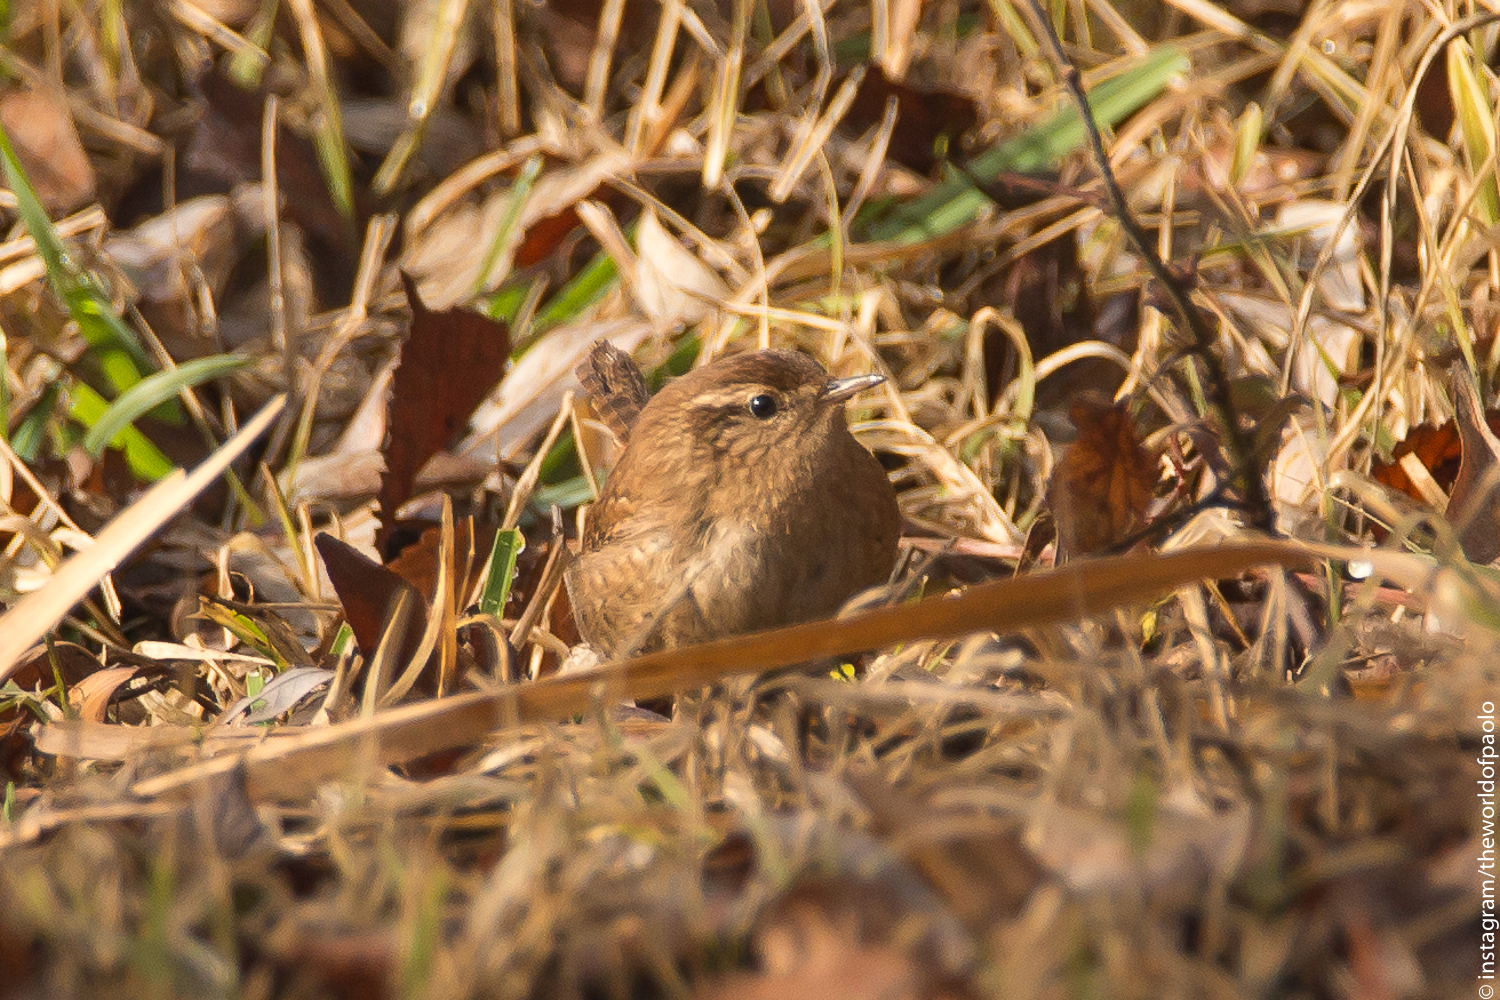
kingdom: Animalia
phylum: Chordata
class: Aves
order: Passeriformes
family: Troglodytidae
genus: Troglodytes
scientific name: Troglodytes troglodytes
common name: Eurasian wren
